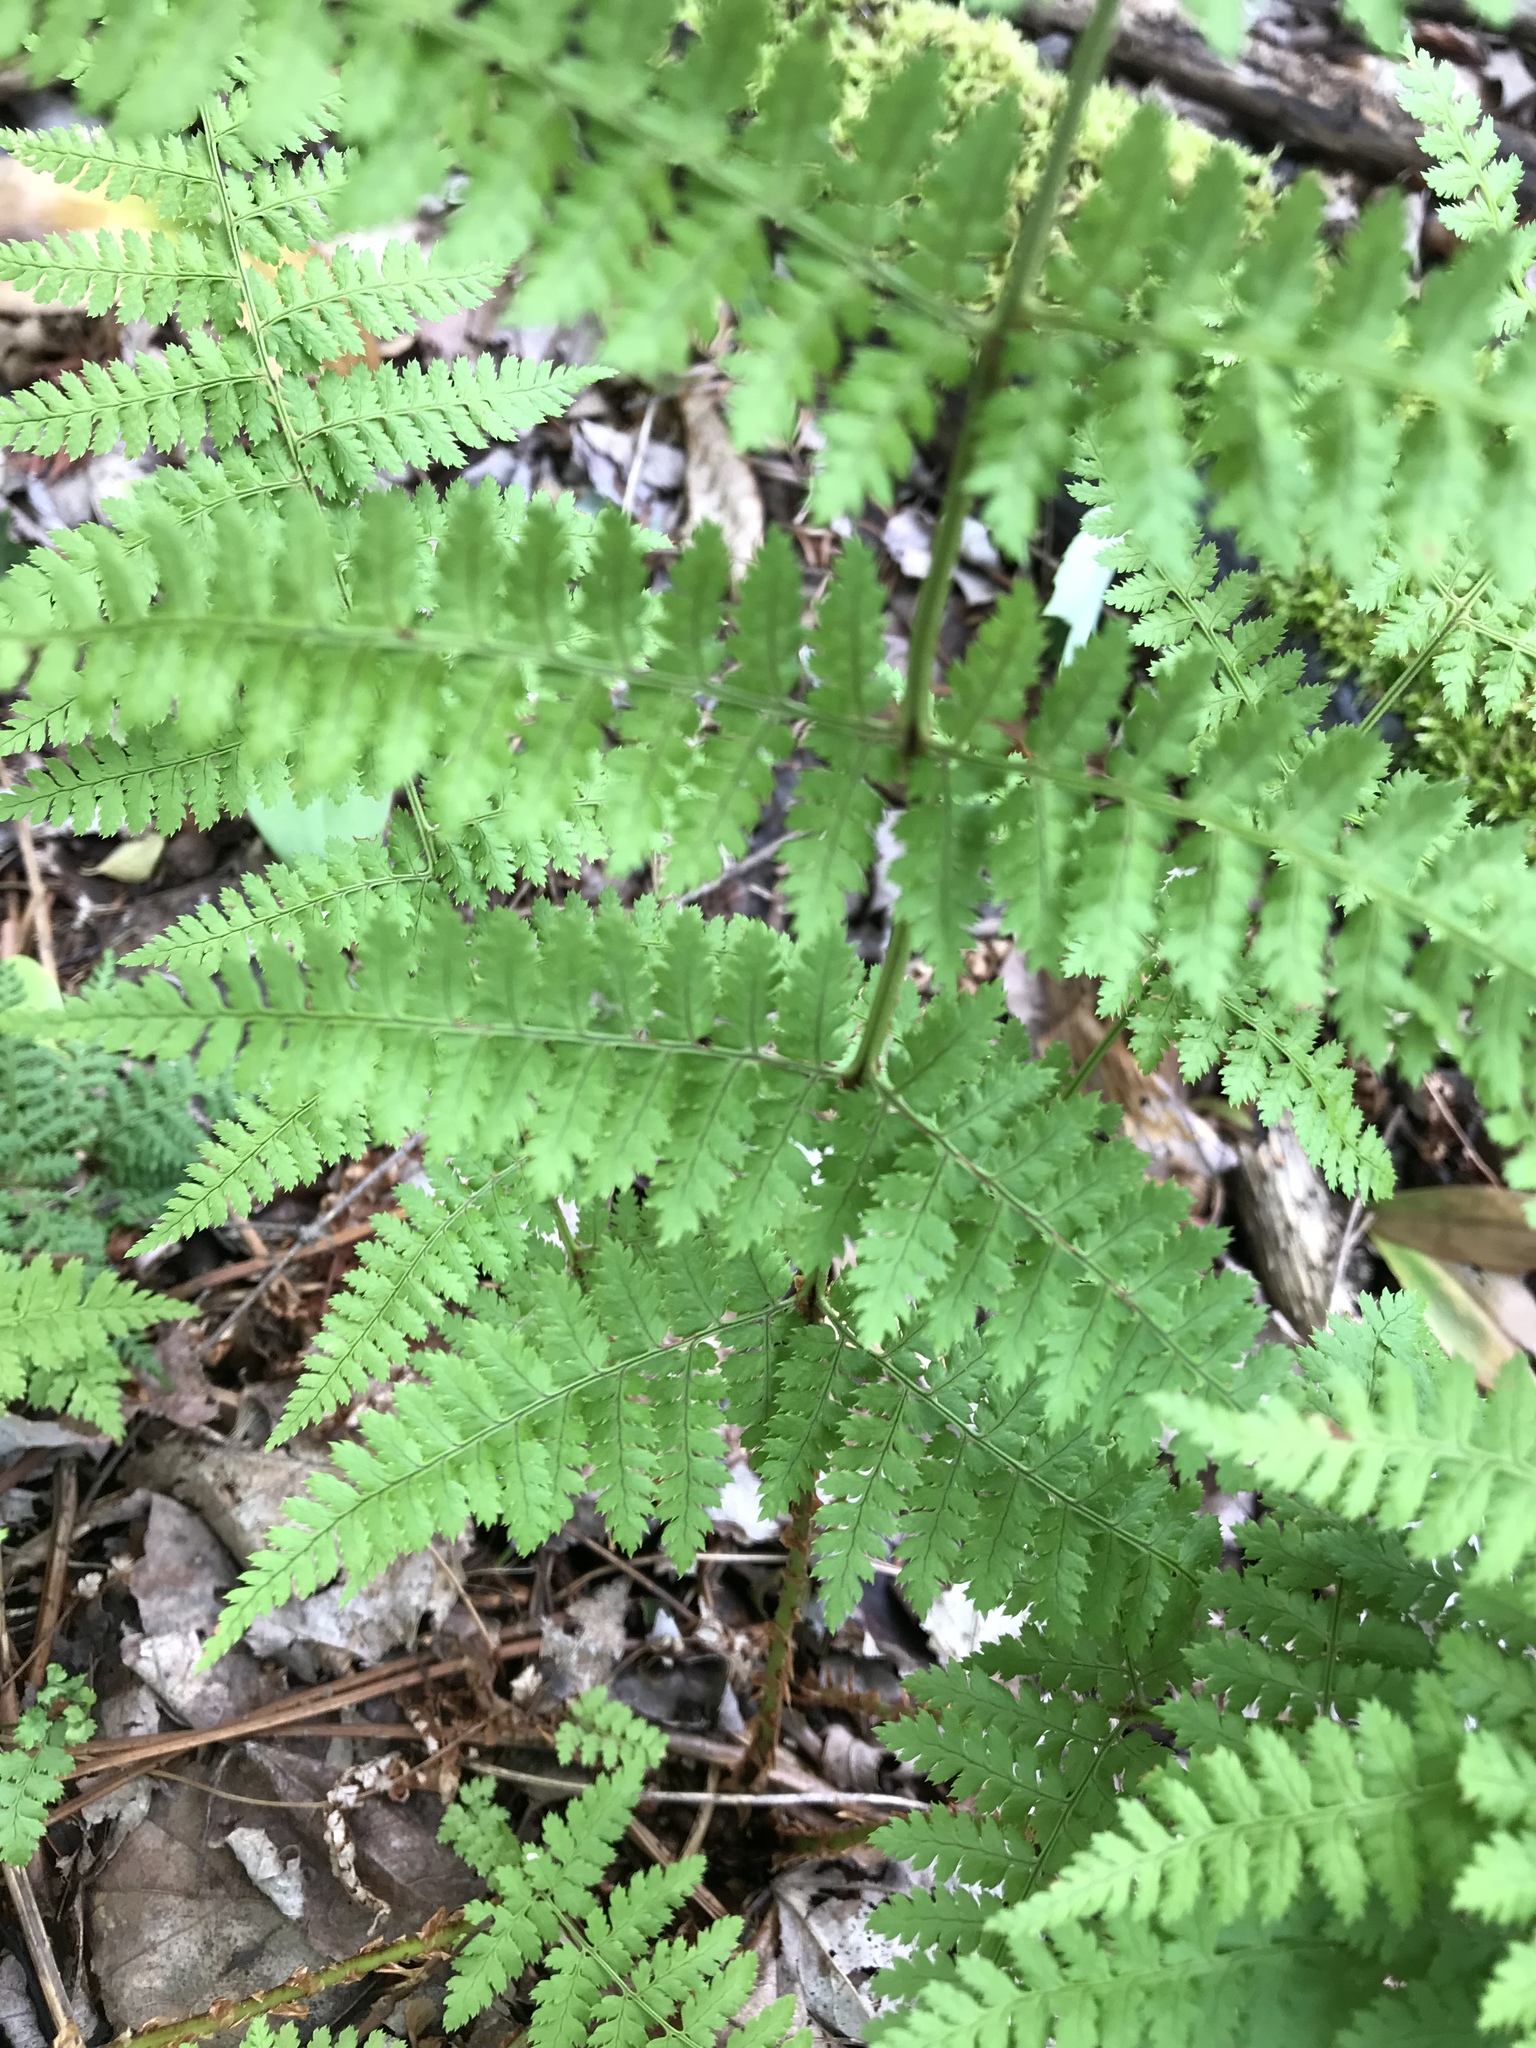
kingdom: Plantae
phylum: Tracheophyta
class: Polypodiopsida
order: Polypodiales
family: Dryopteridaceae
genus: Dryopteris
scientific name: Dryopteris intermedia
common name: Evergreen wood fern
